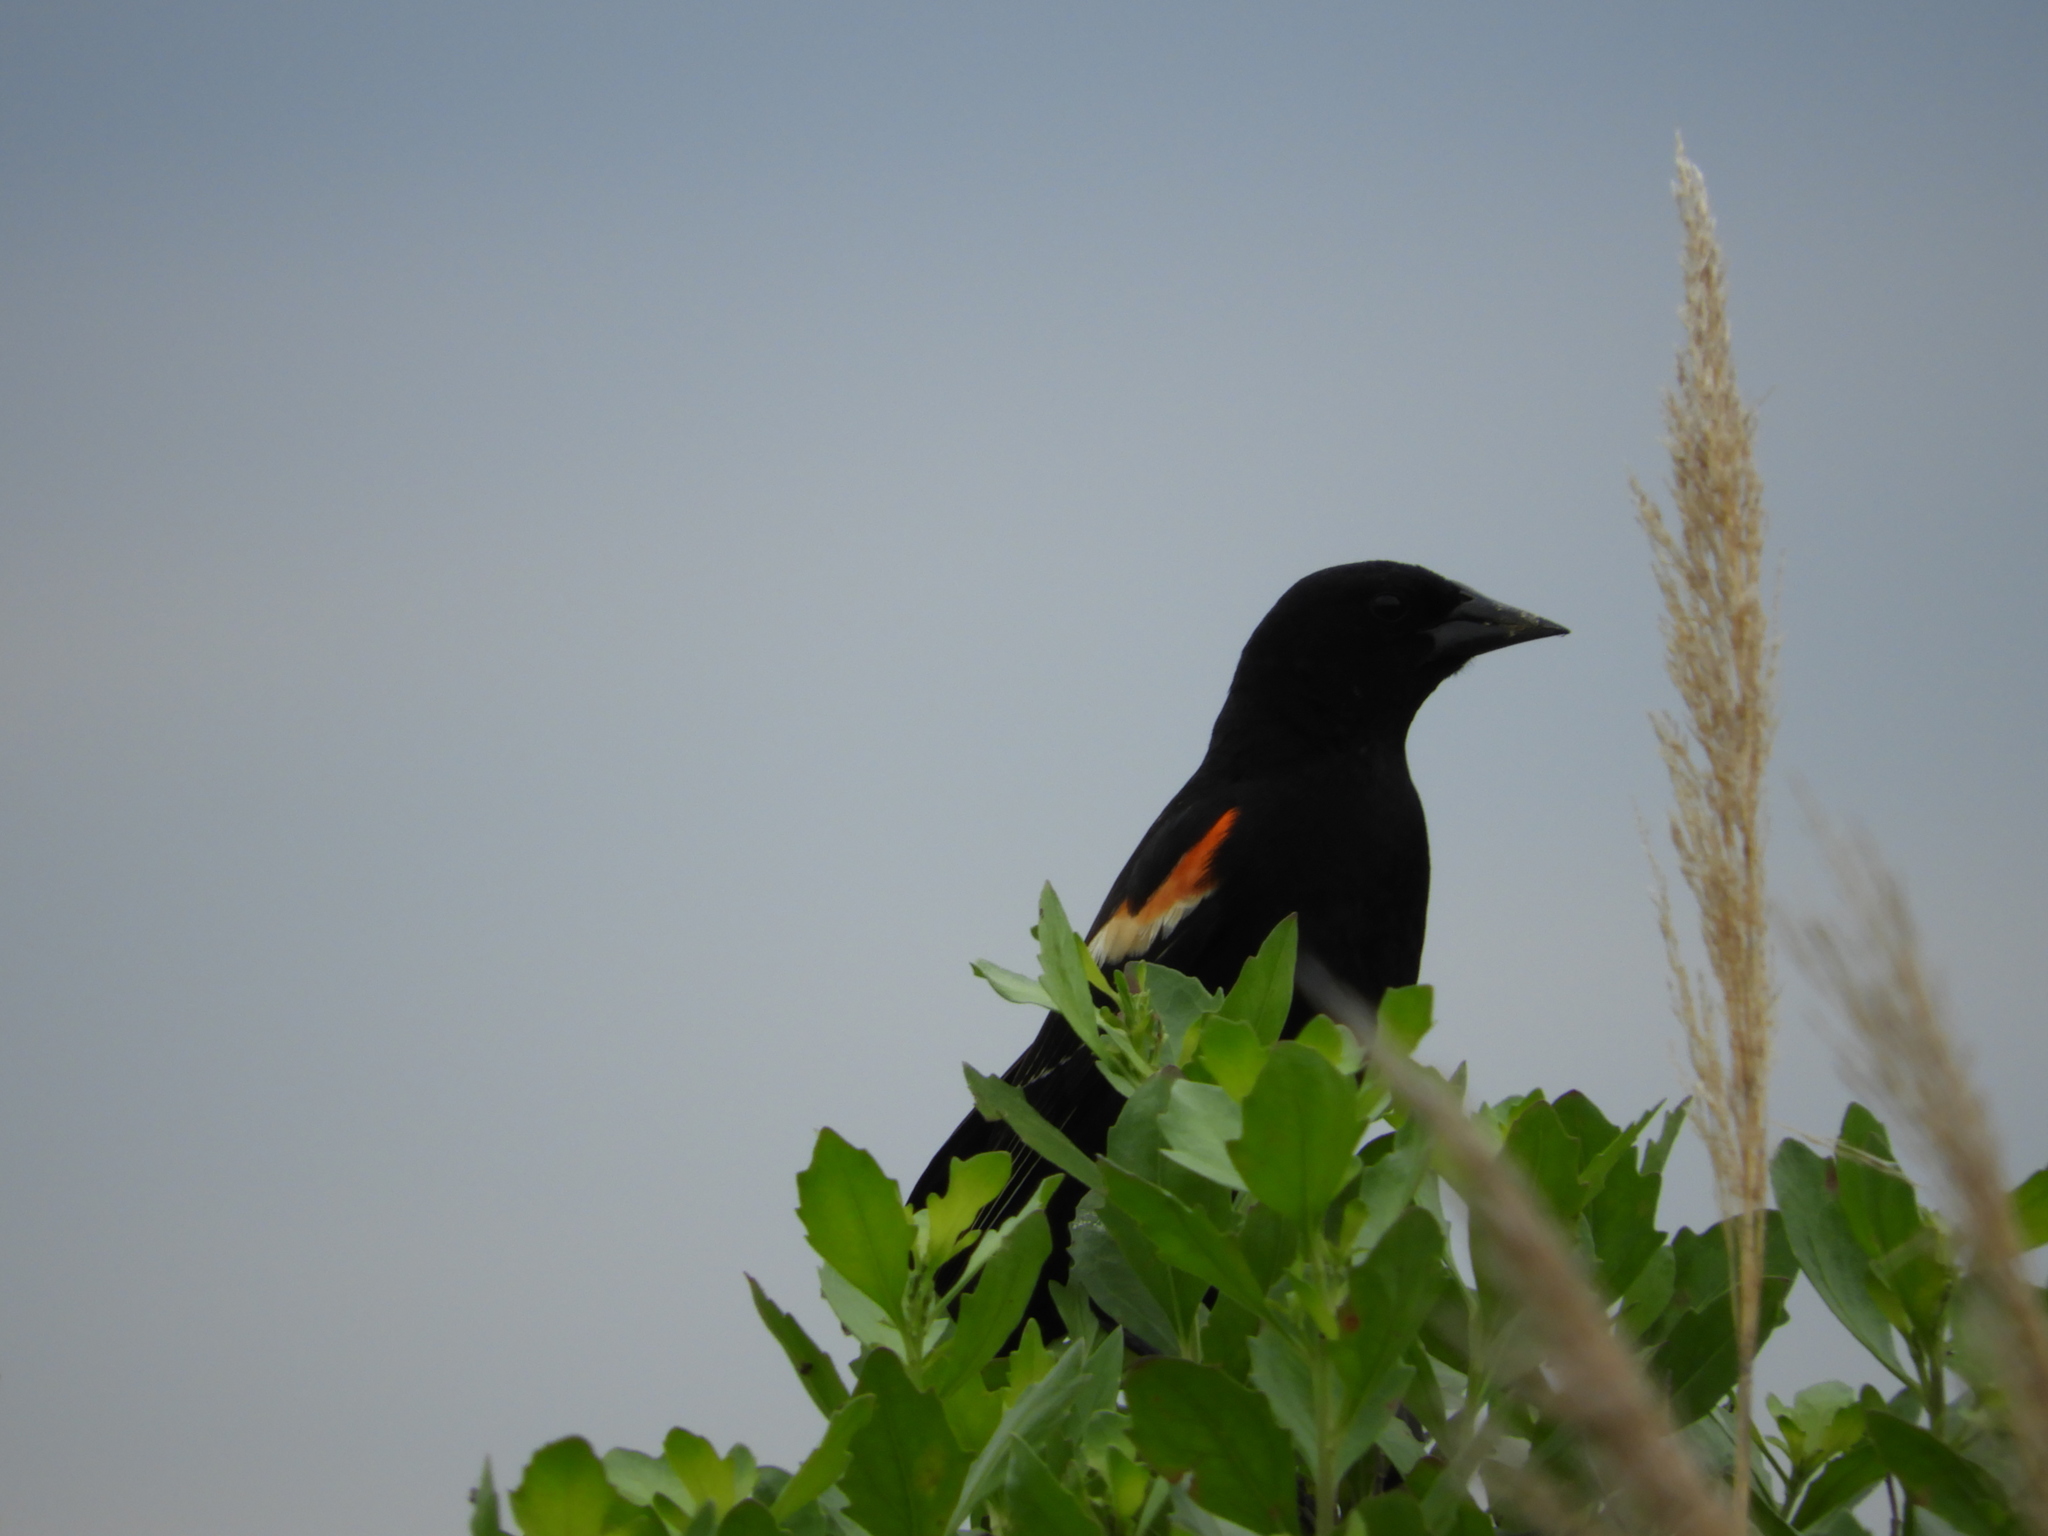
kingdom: Animalia
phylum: Chordata
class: Aves
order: Passeriformes
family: Icteridae
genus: Agelaius
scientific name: Agelaius phoeniceus
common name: Red-winged blackbird
